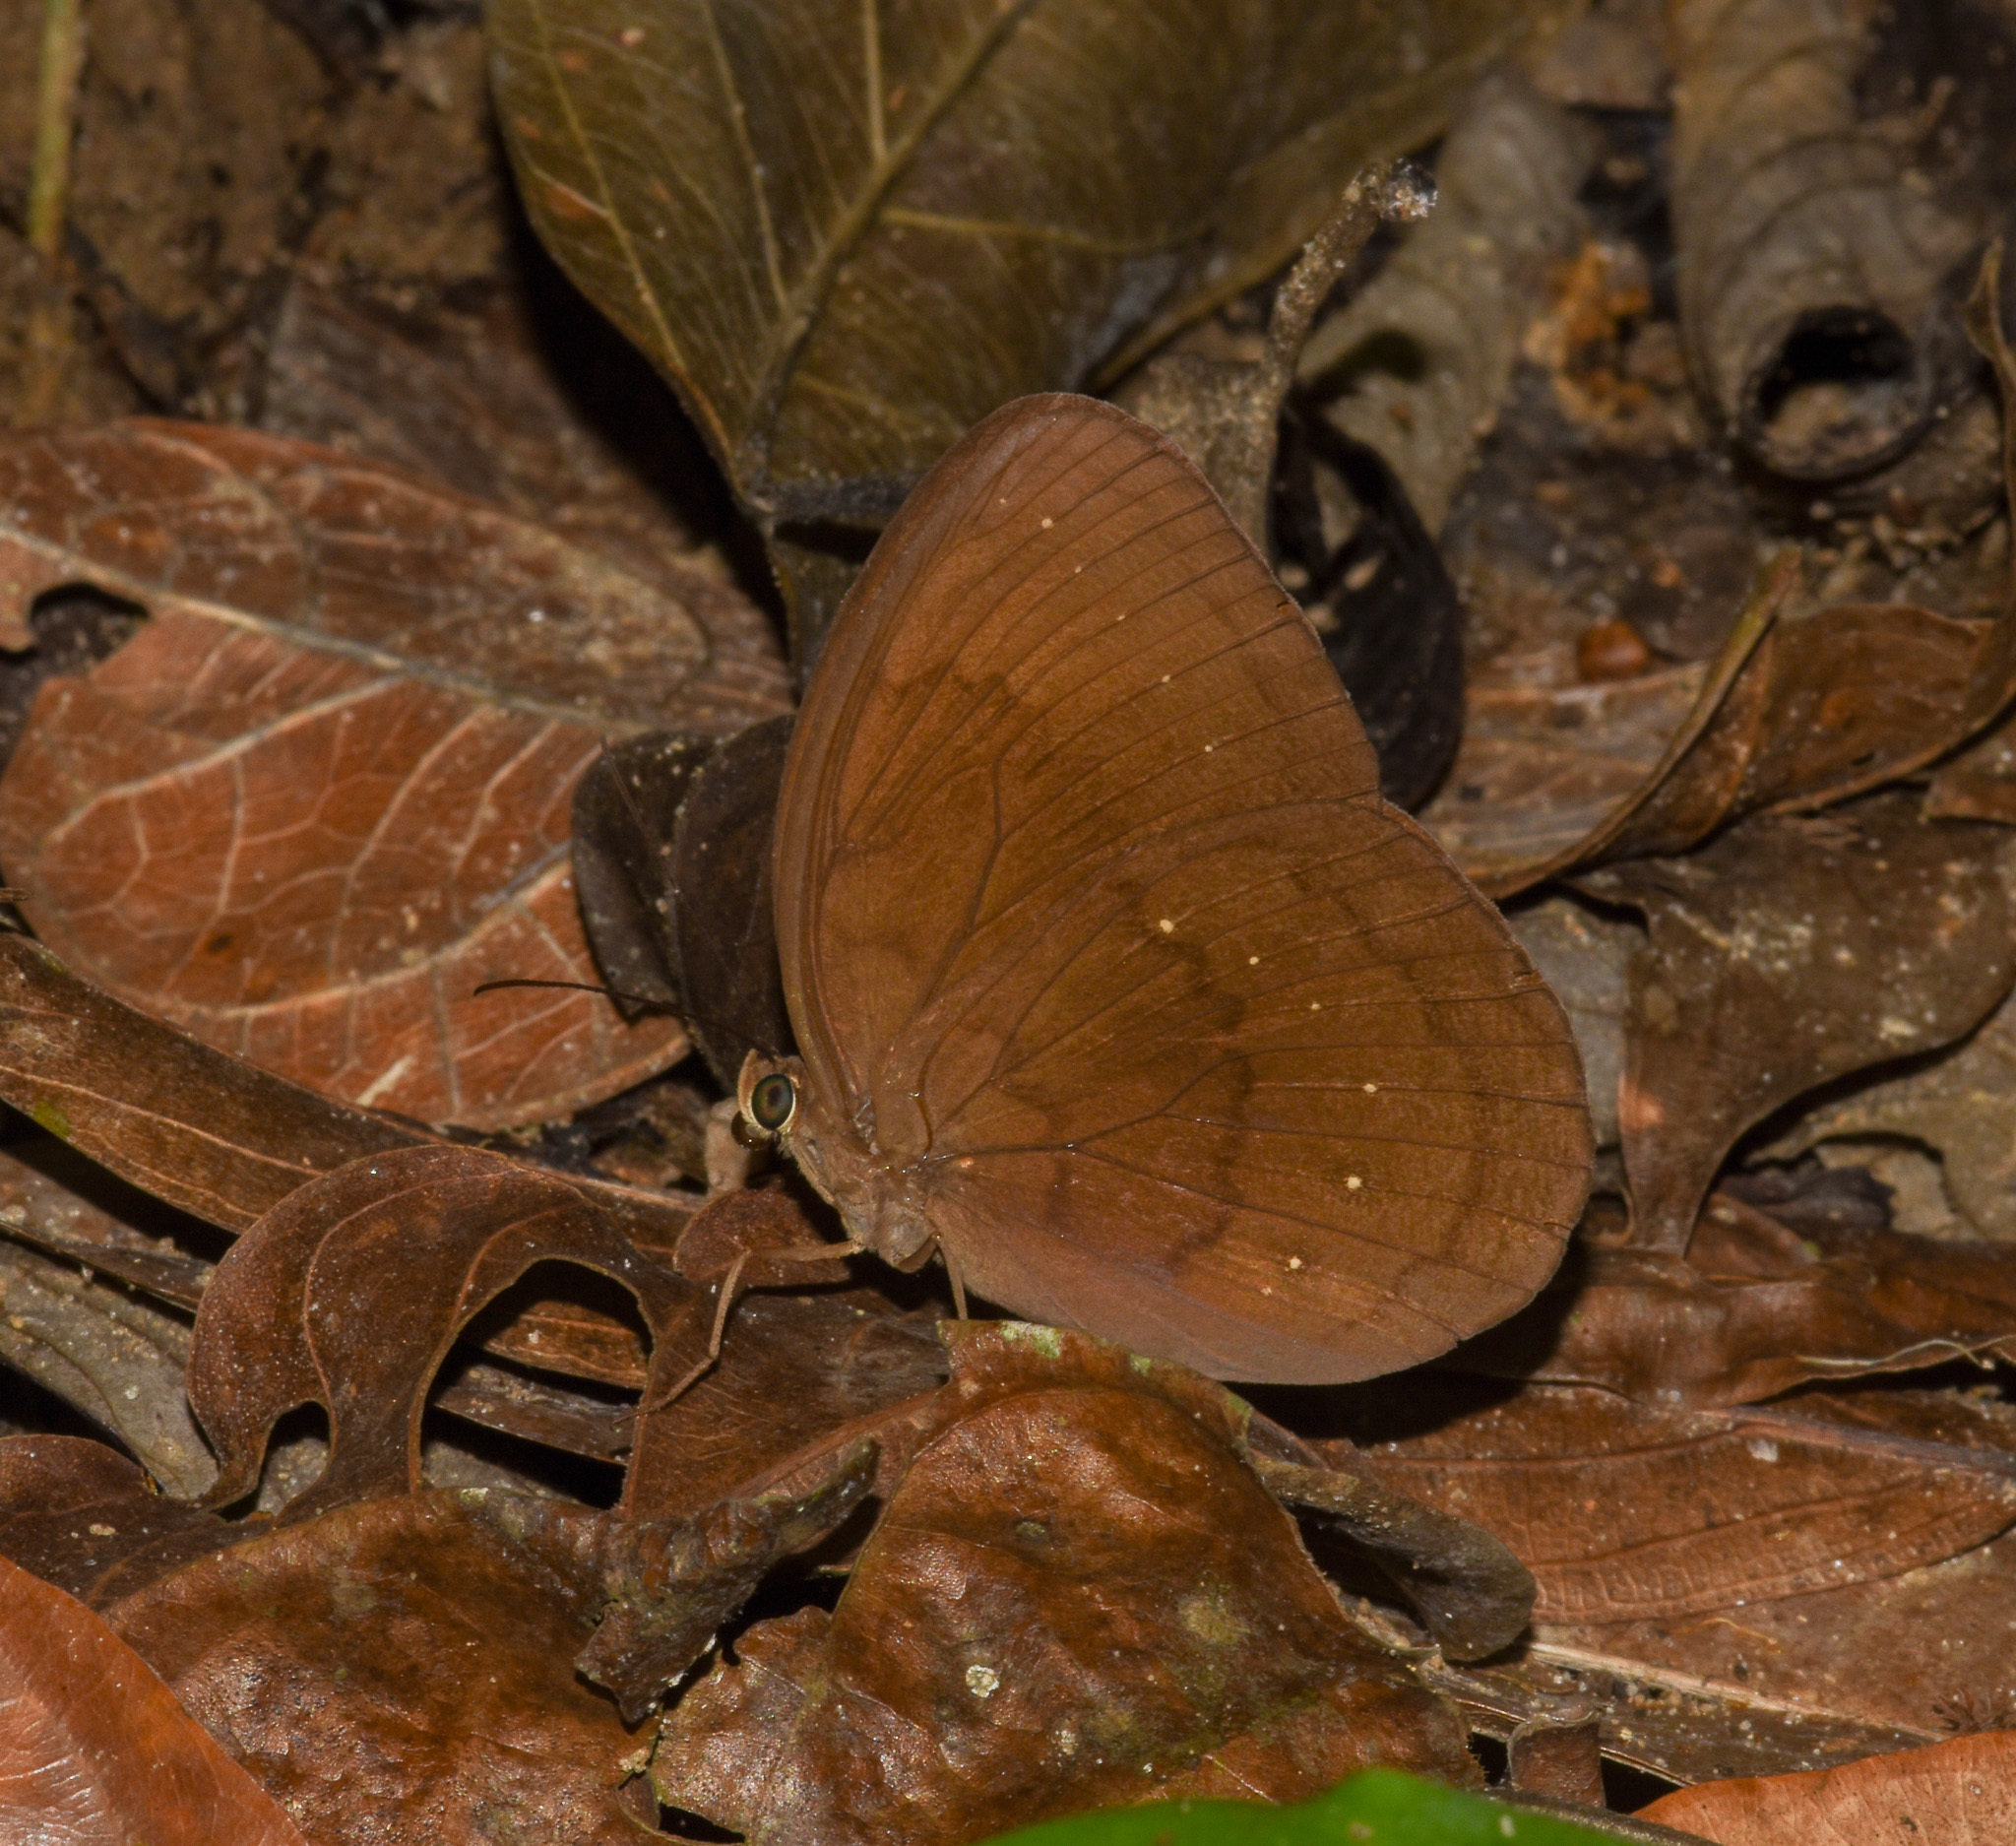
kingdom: Animalia
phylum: Arthropoda
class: Insecta
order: Lepidoptera
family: Nymphalidae
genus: Faunis
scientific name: Faunis canens
